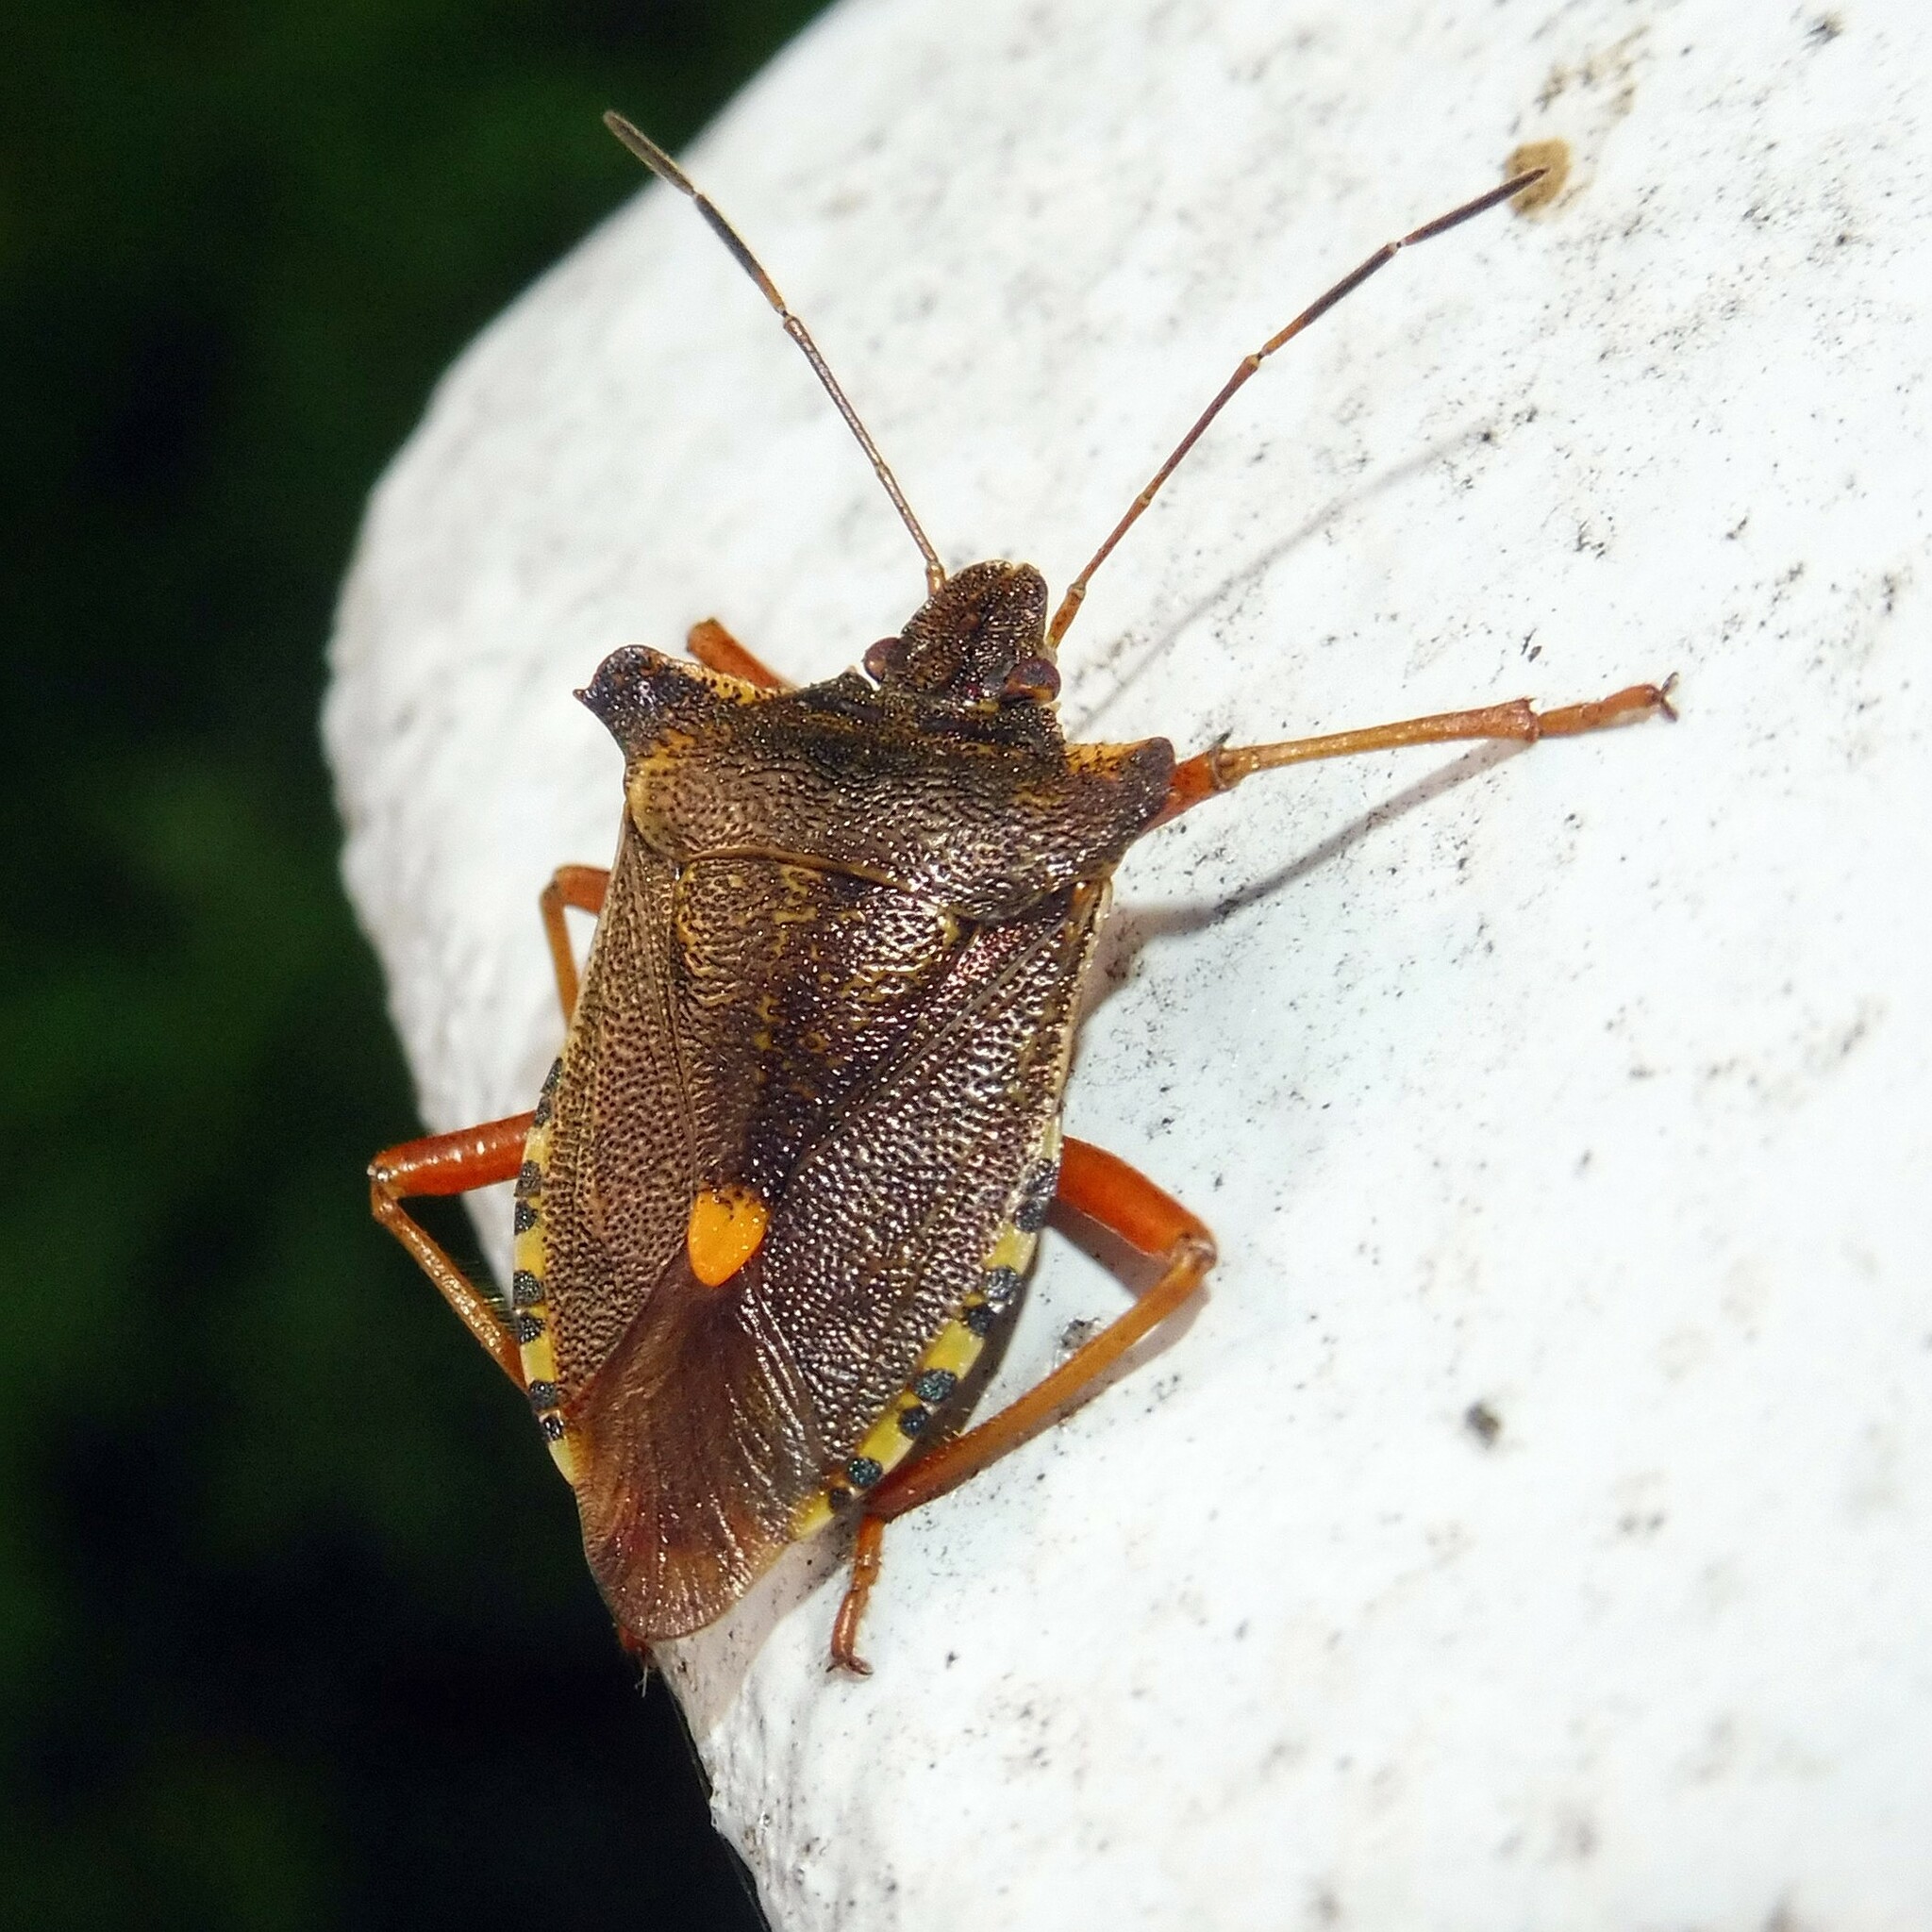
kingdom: Animalia
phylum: Arthropoda
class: Insecta
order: Hemiptera
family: Pentatomidae
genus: Pentatoma
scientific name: Pentatoma rufipes
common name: Forest bug
